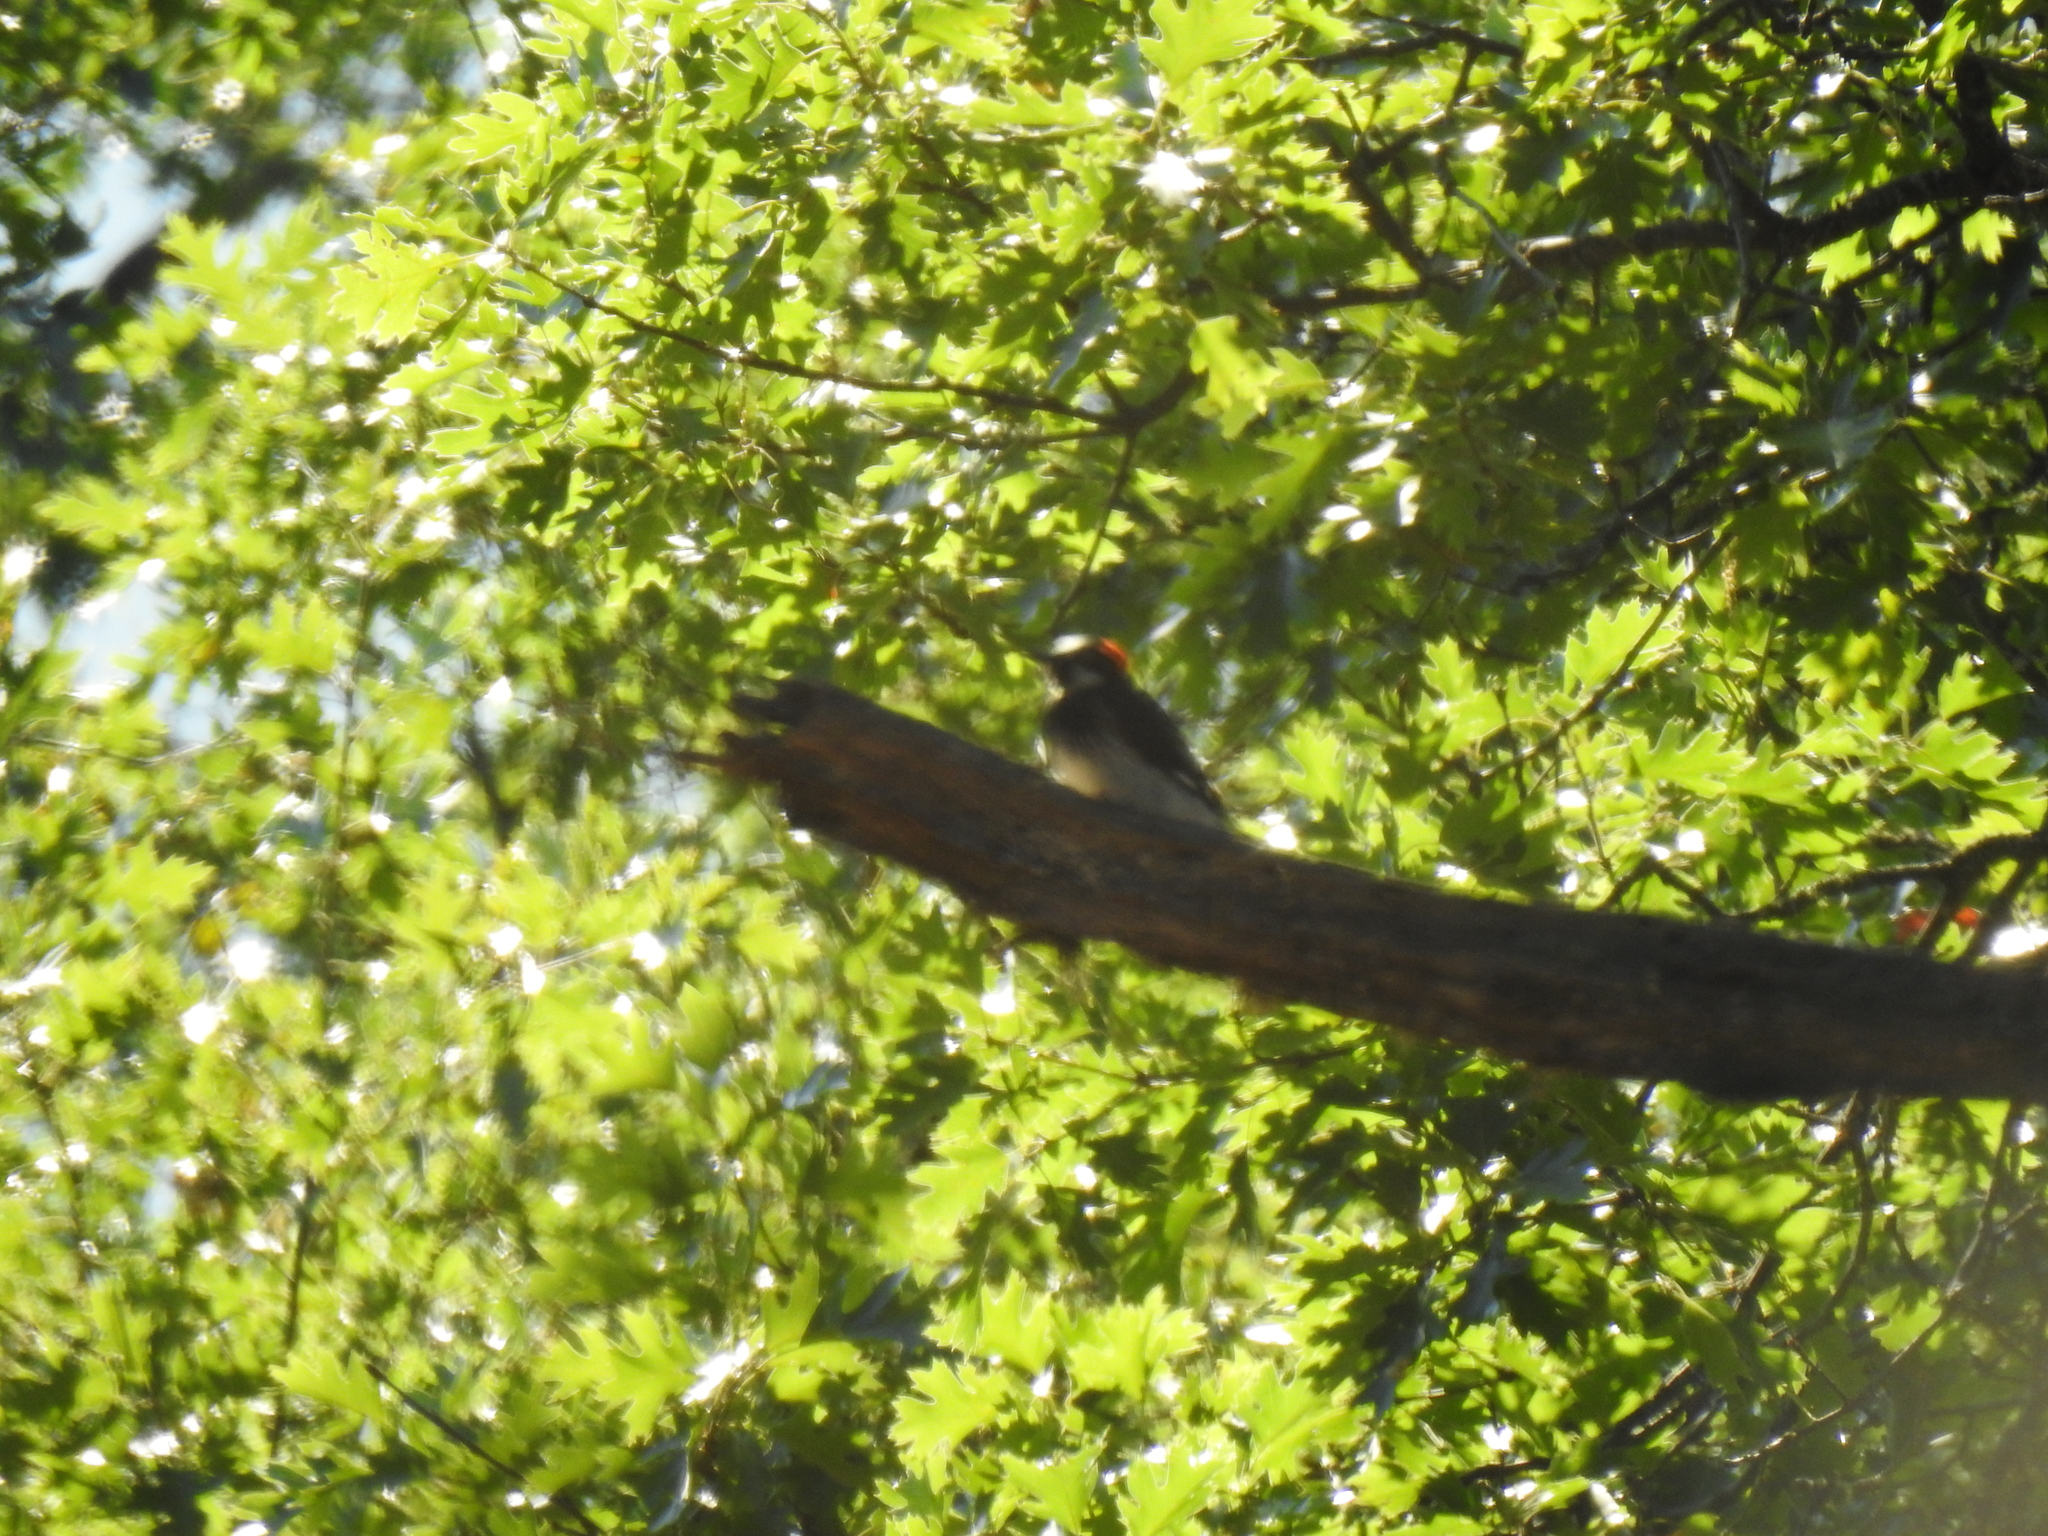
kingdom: Animalia
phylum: Chordata
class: Aves
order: Piciformes
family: Picidae
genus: Melanerpes
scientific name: Melanerpes formicivorus
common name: Acorn woodpecker
